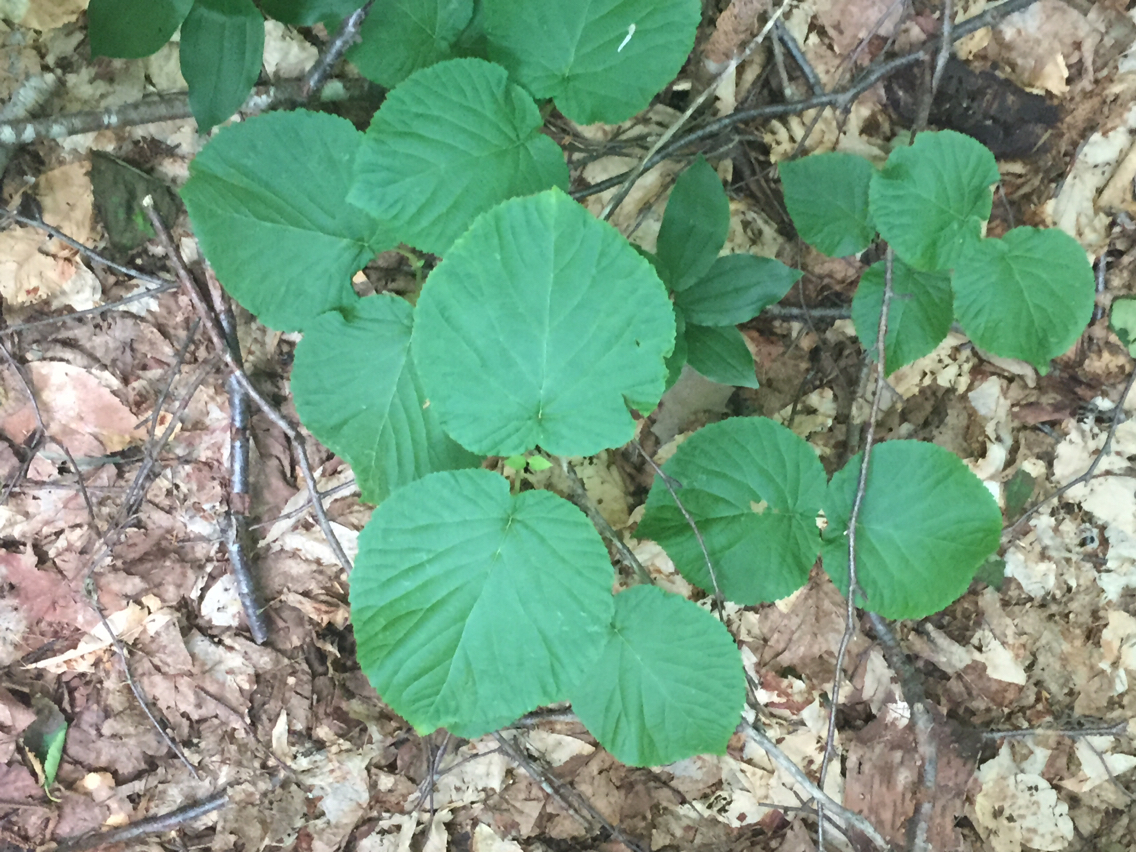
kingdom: Plantae
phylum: Tracheophyta
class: Magnoliopsida
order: Dipsacales
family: Viburnaceae
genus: Viburnum
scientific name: Viburnum lantanoides
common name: Hobblebush
